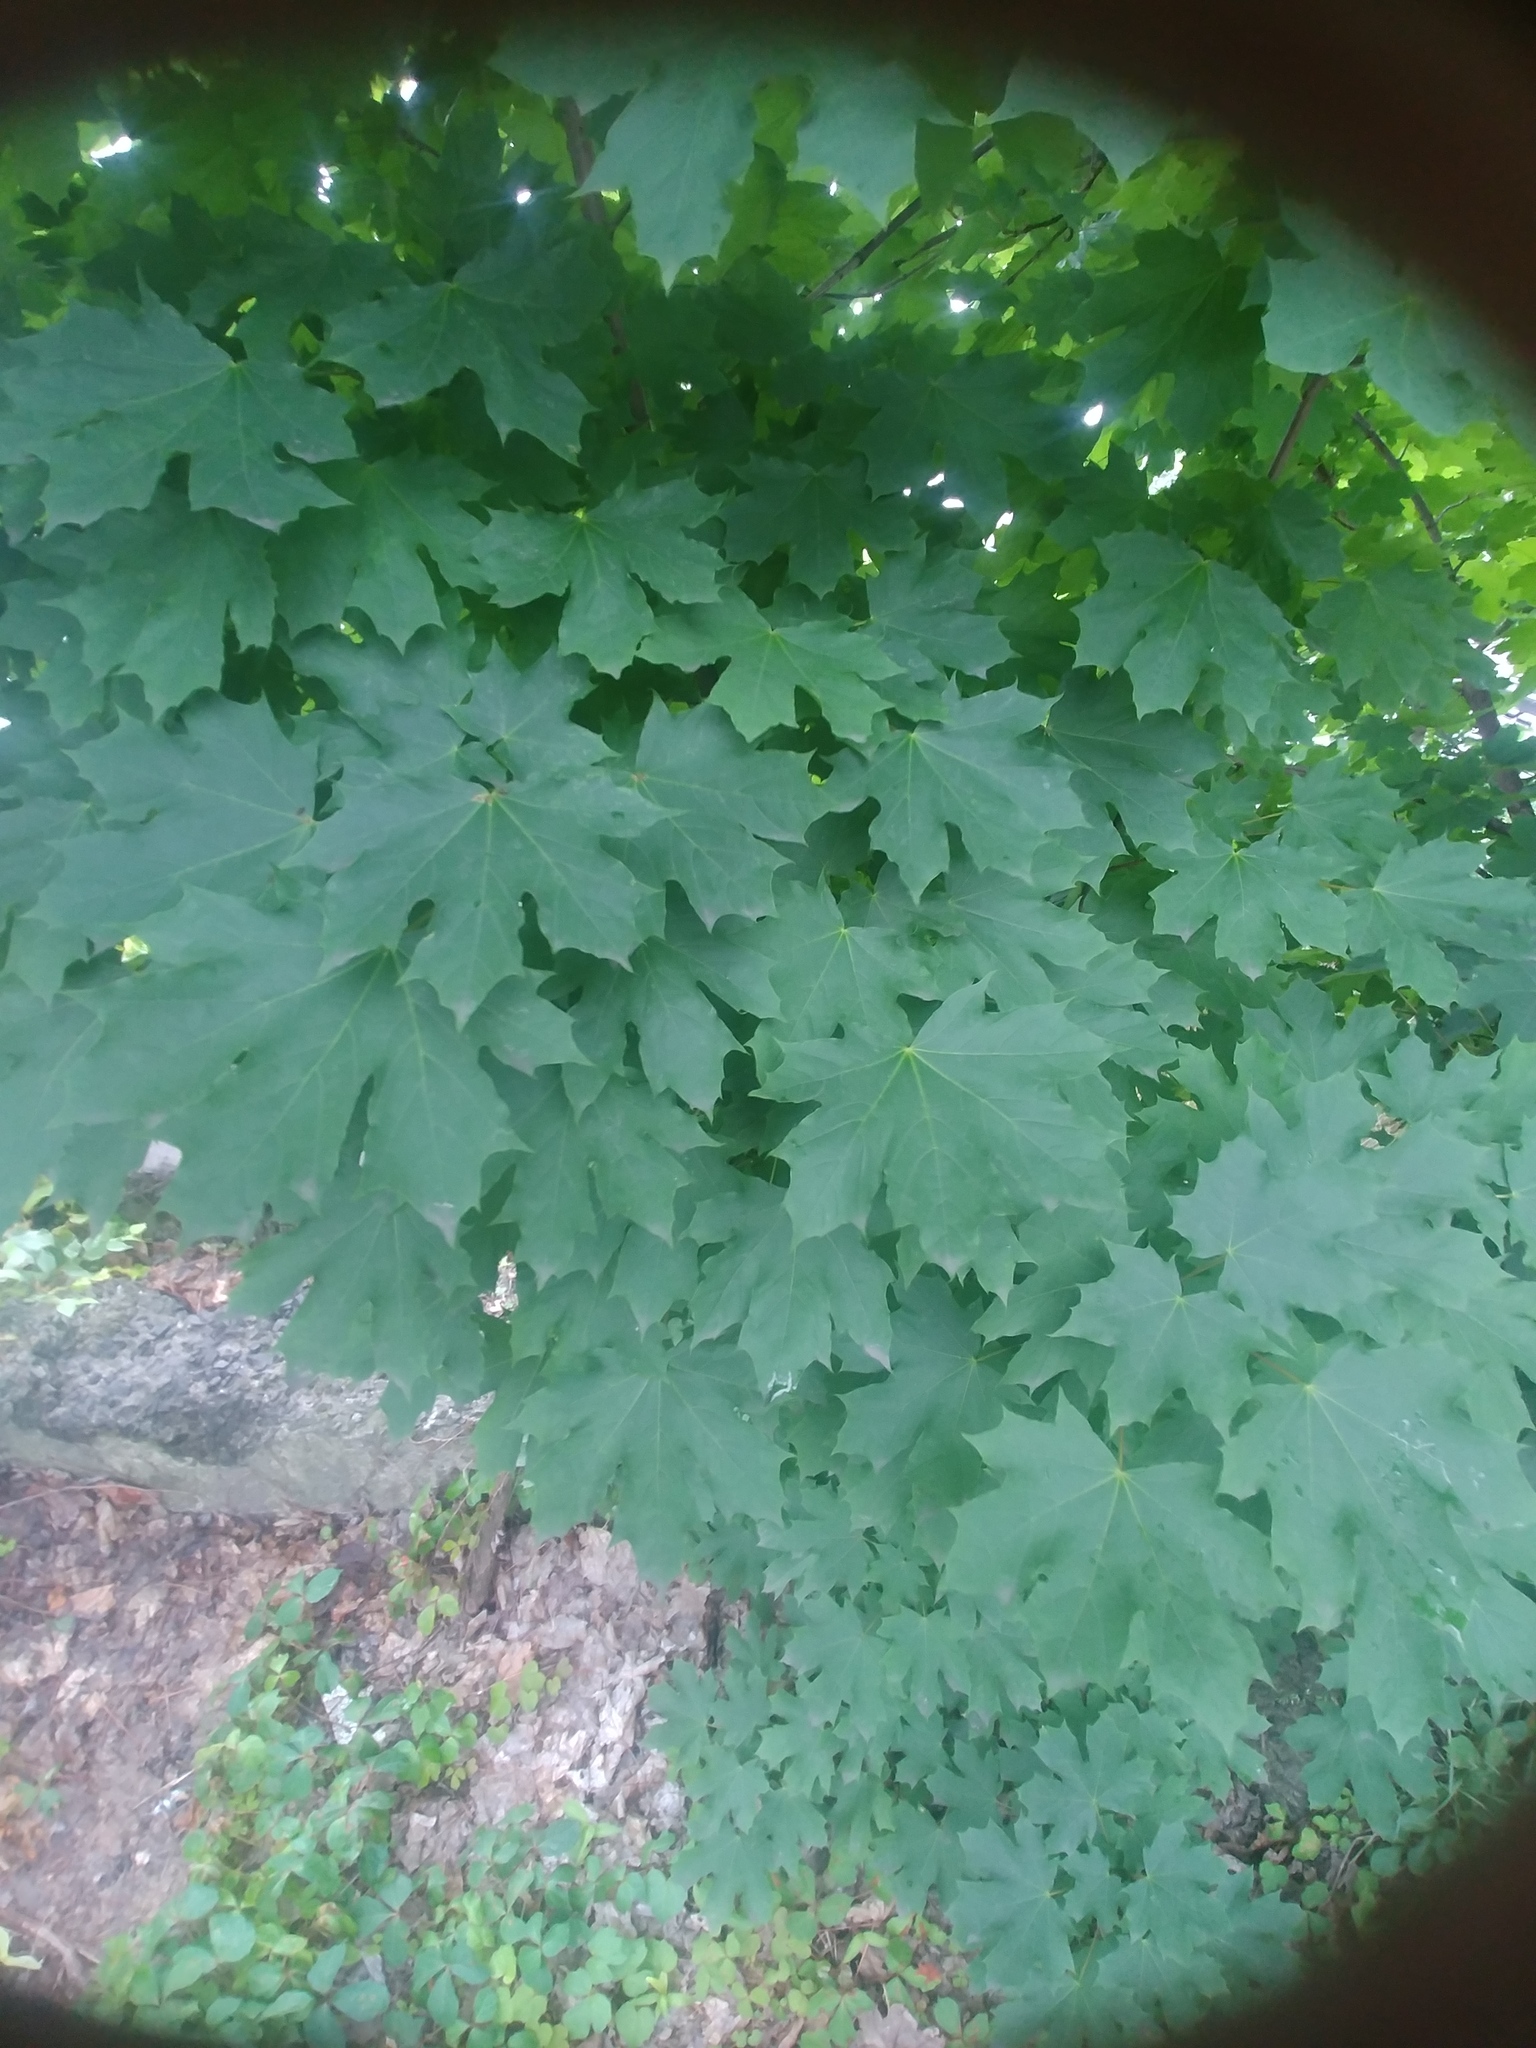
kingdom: Plantae
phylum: Tracheophyta
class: Magnoliopsida
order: Sapindales
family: Sapindaceae
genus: Acer
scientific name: Acer platanoides
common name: Norway maple
